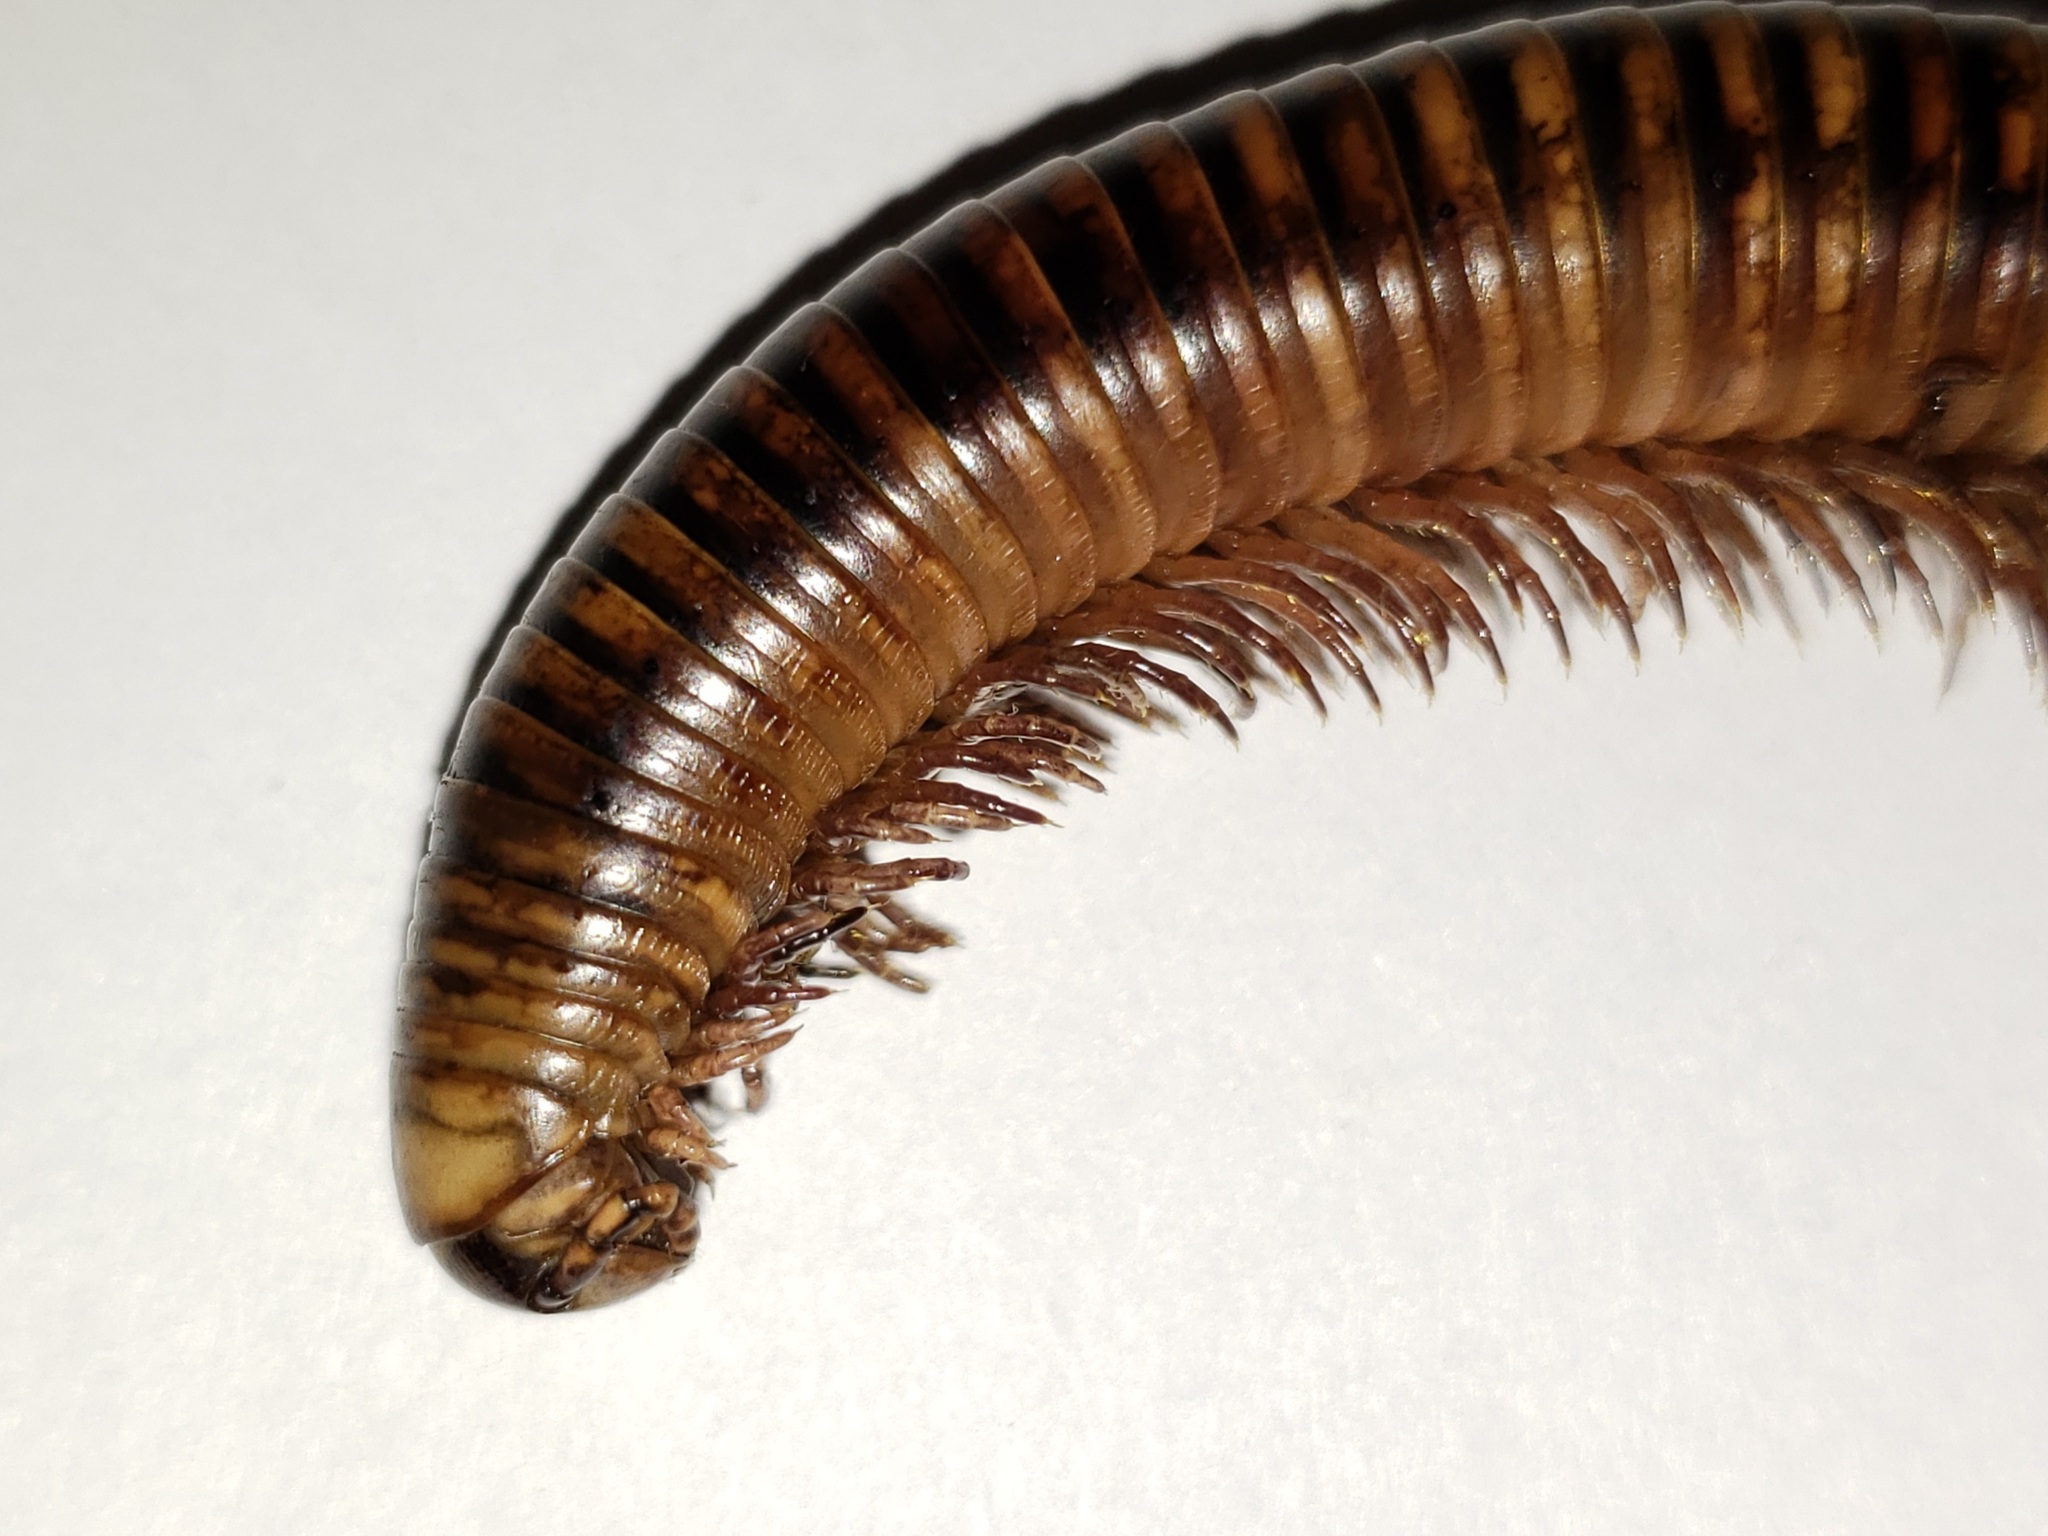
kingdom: Animalia
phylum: Arthropoda
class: Diplopoda
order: Spirobolida
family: Spirobolidae
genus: Chicobolus
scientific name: Chicobolus spinigerus
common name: Florida ivory millipede
